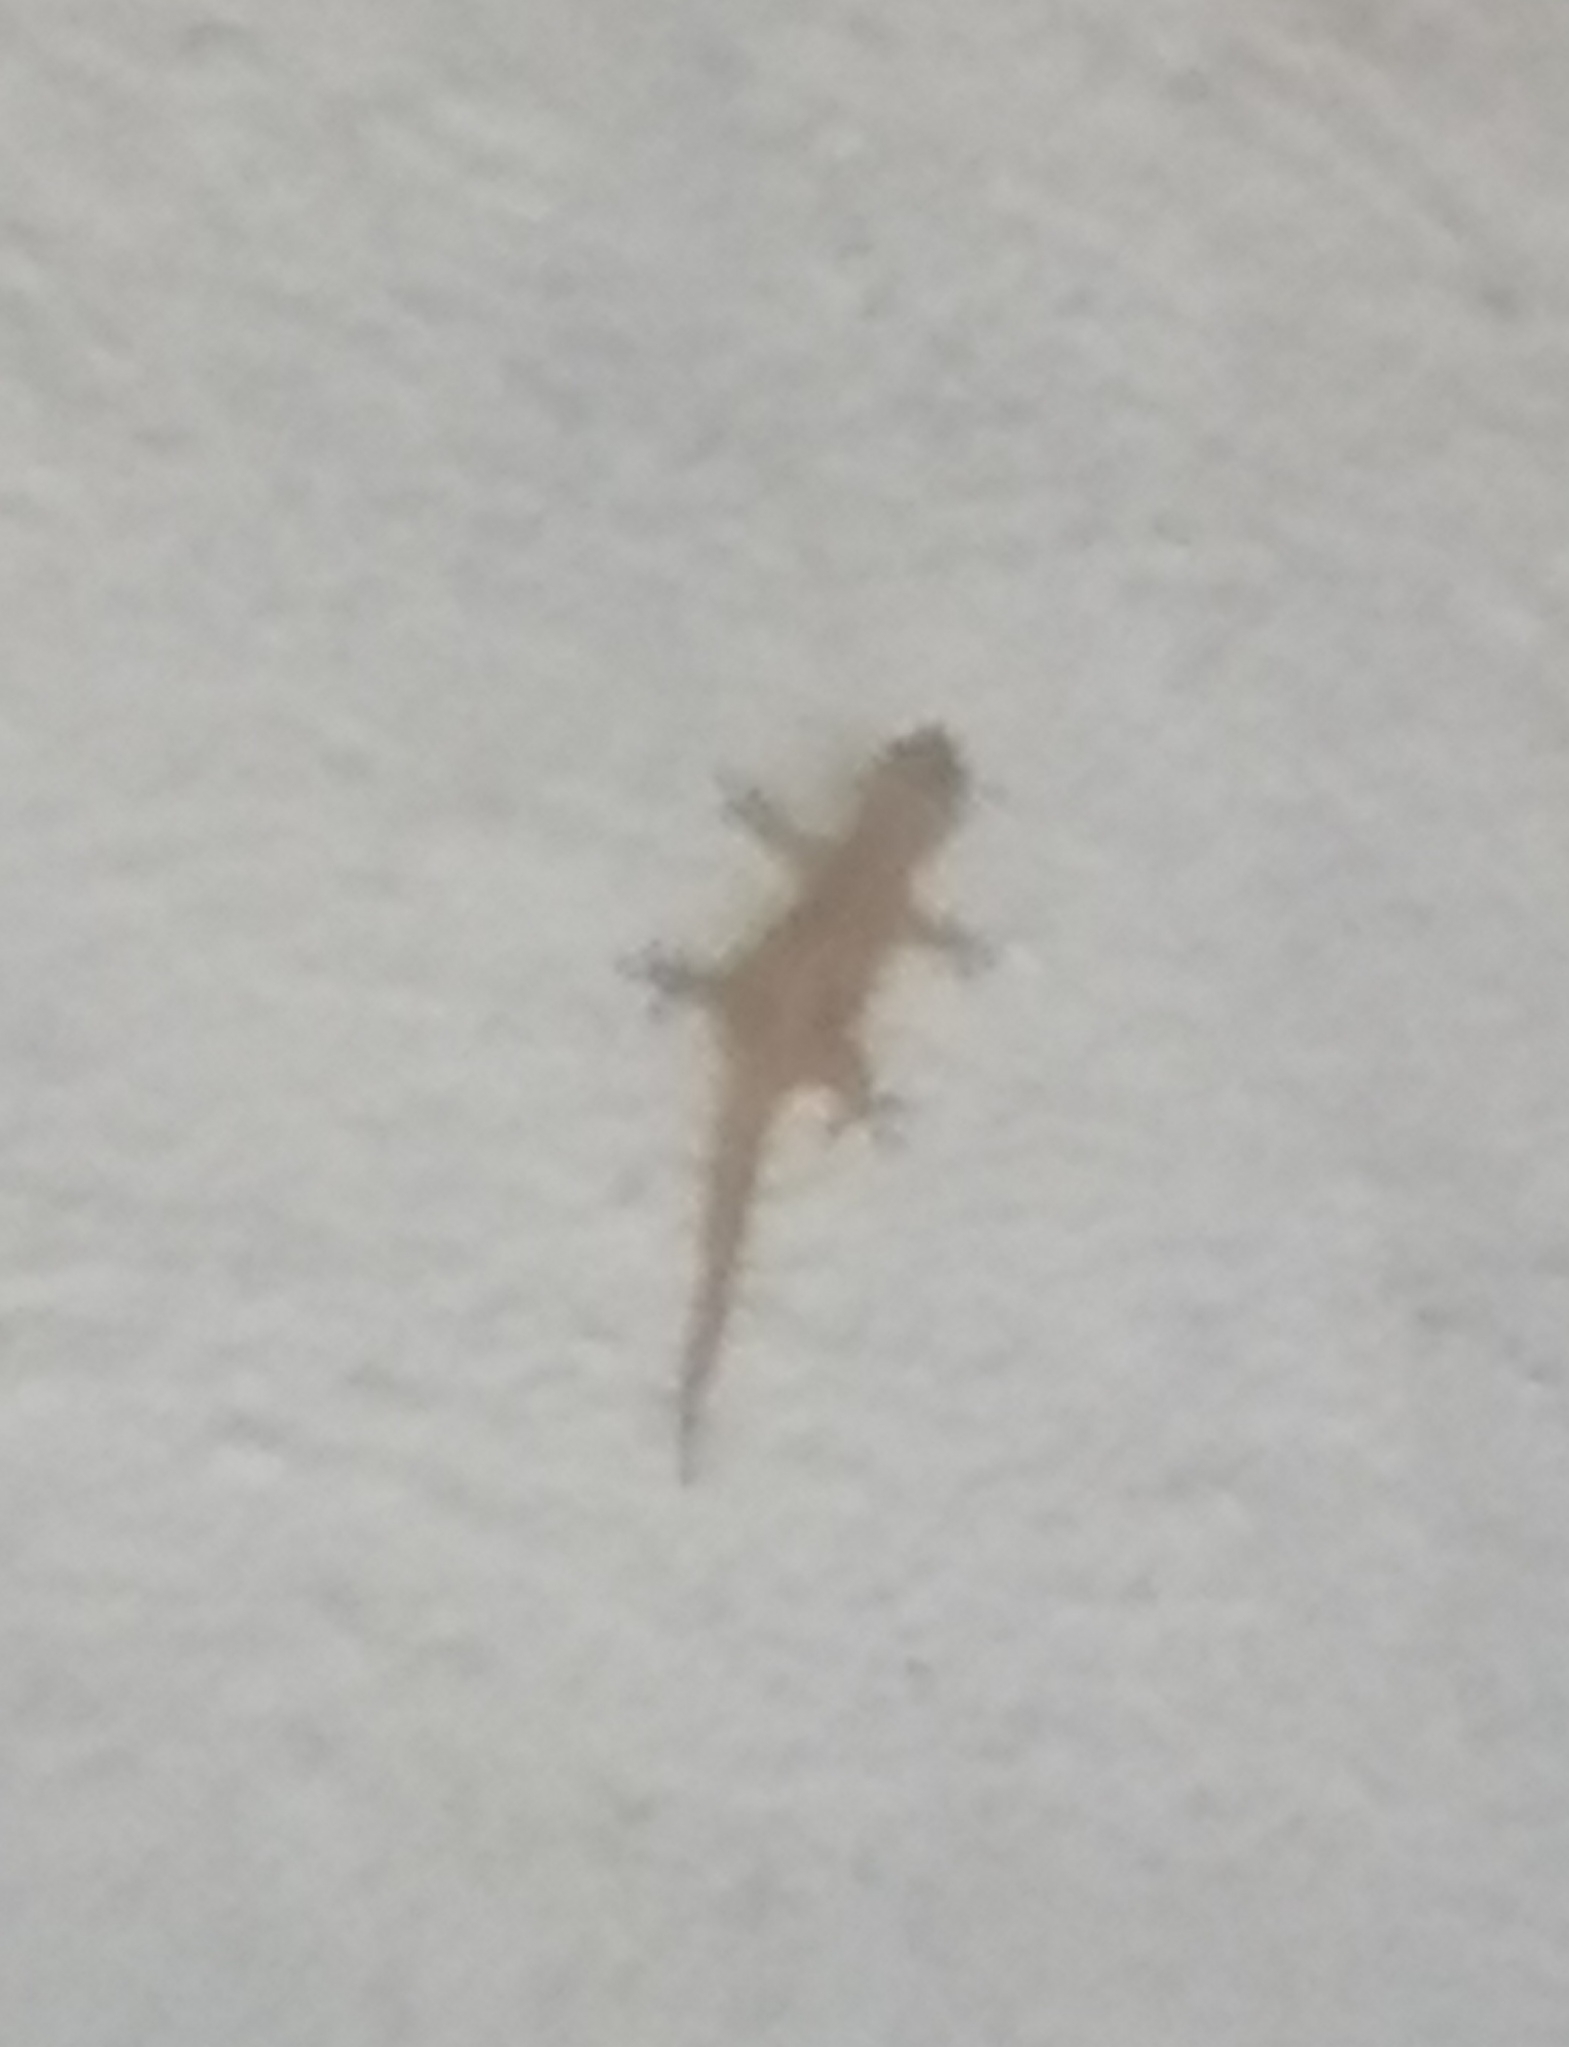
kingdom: Animalia
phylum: Chordata
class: Squamata
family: Gekkonidae
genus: Hemidactylus
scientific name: Hemidactylus frenatus
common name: Common house gecko
